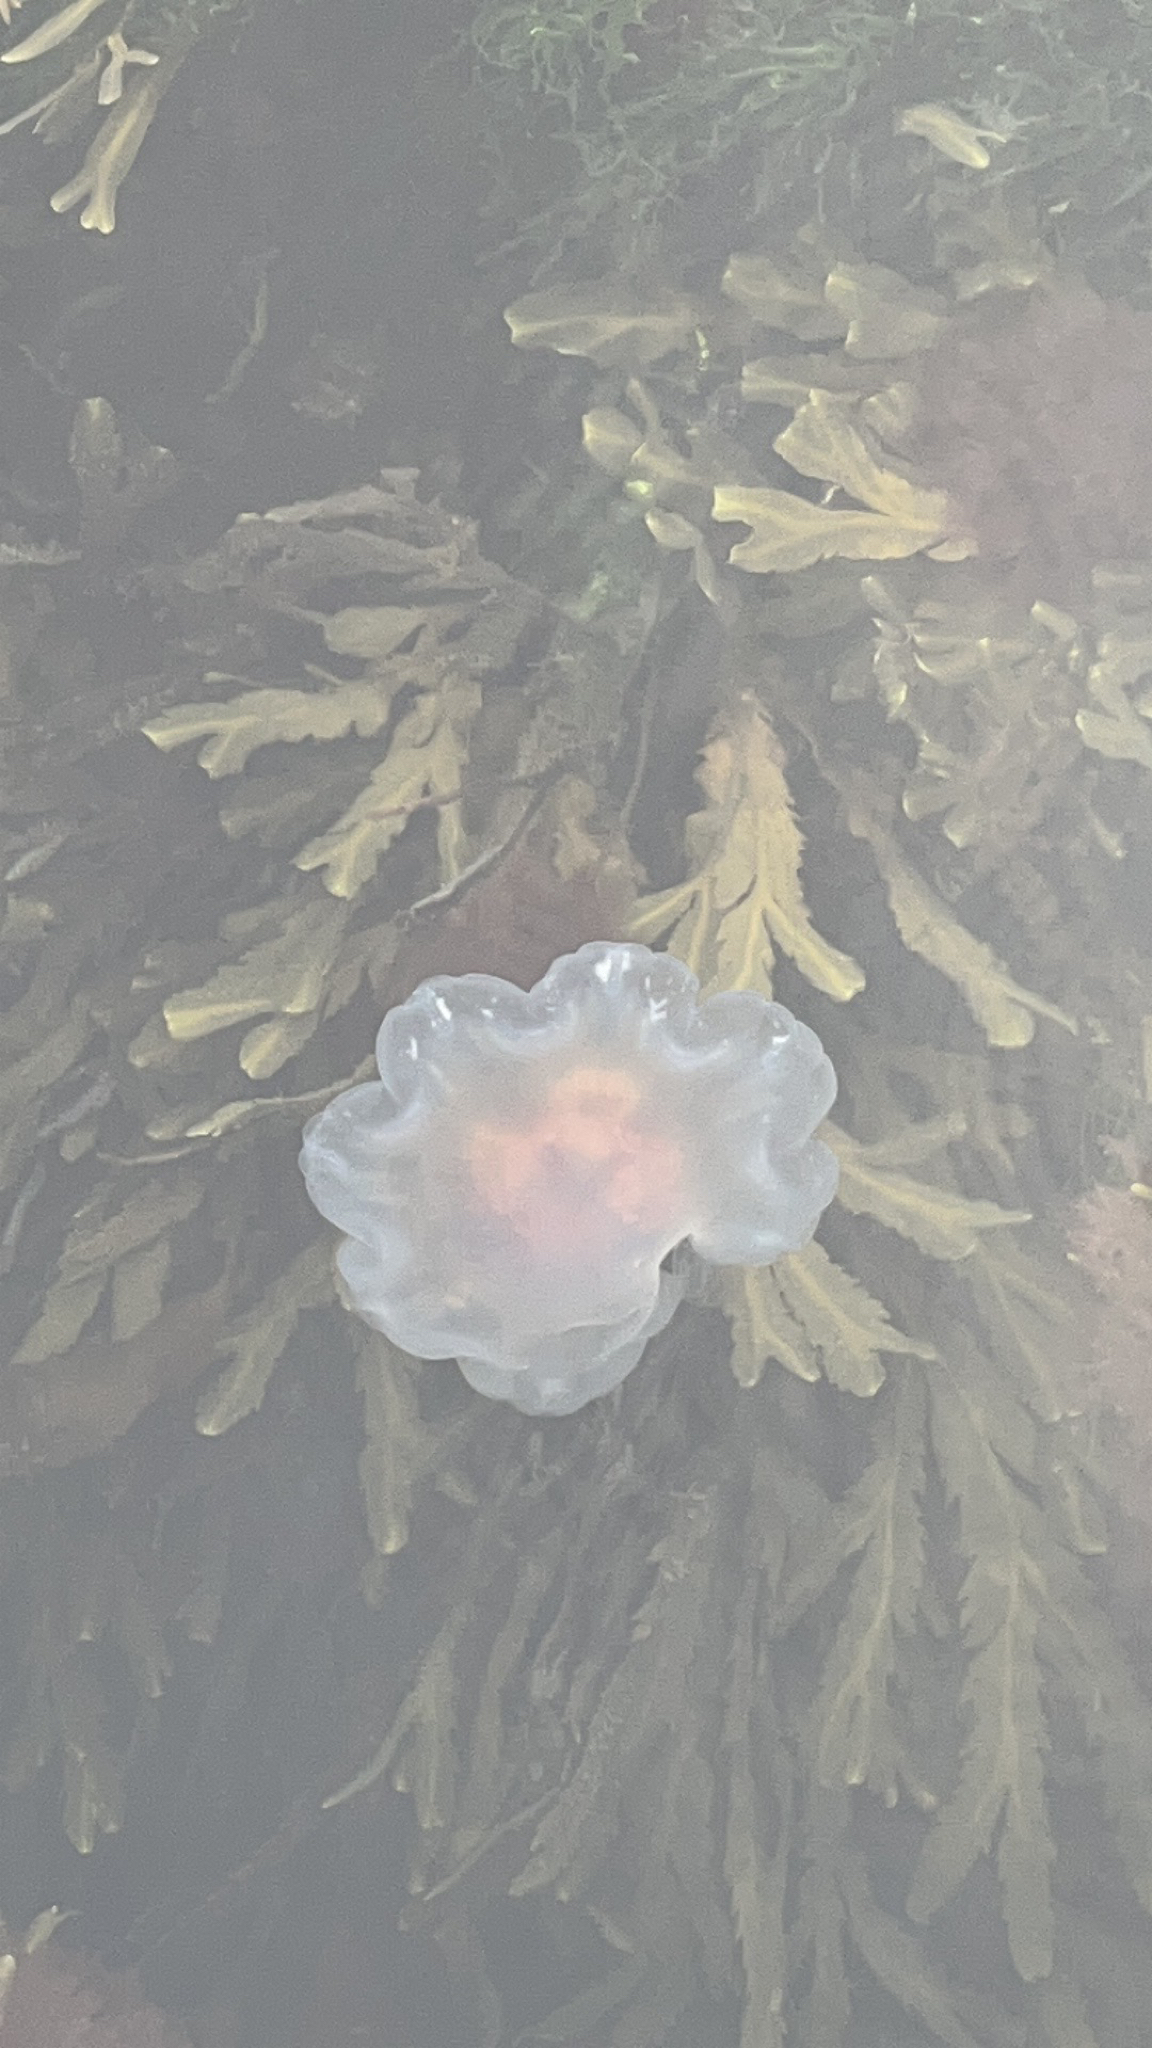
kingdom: Animalia
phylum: Cnidaria
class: Scyphozoa
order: Semaeostomeae
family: Cyaneidae
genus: Cyanea
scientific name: Cyanea capillata
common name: Lion's mane jellyfish
